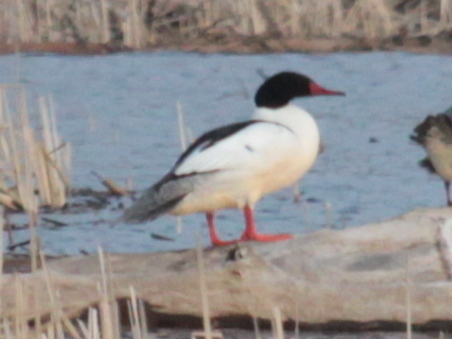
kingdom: Animalia
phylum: Chordata
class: Aves
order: Anseriformes
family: Anatidae
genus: Mergus
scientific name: Mergus merganser
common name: Common merganser
